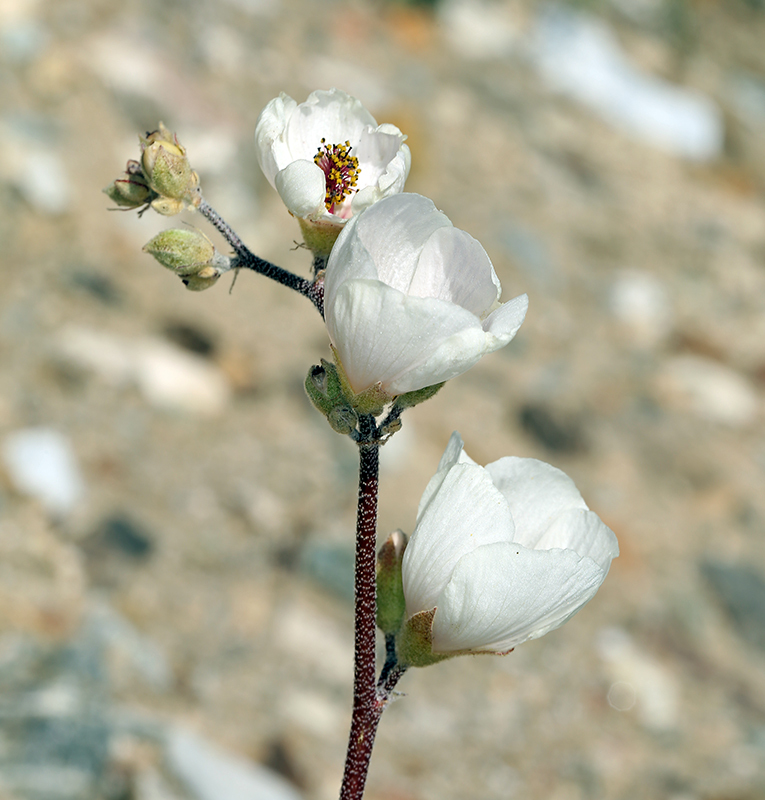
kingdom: Plantae
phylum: Tracheophyta
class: Magnoliopsida
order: Malvales
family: Malvaceae
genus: Sphaeralcea
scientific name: Sphaeralcea ambigua
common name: Apricot globe-mallow
